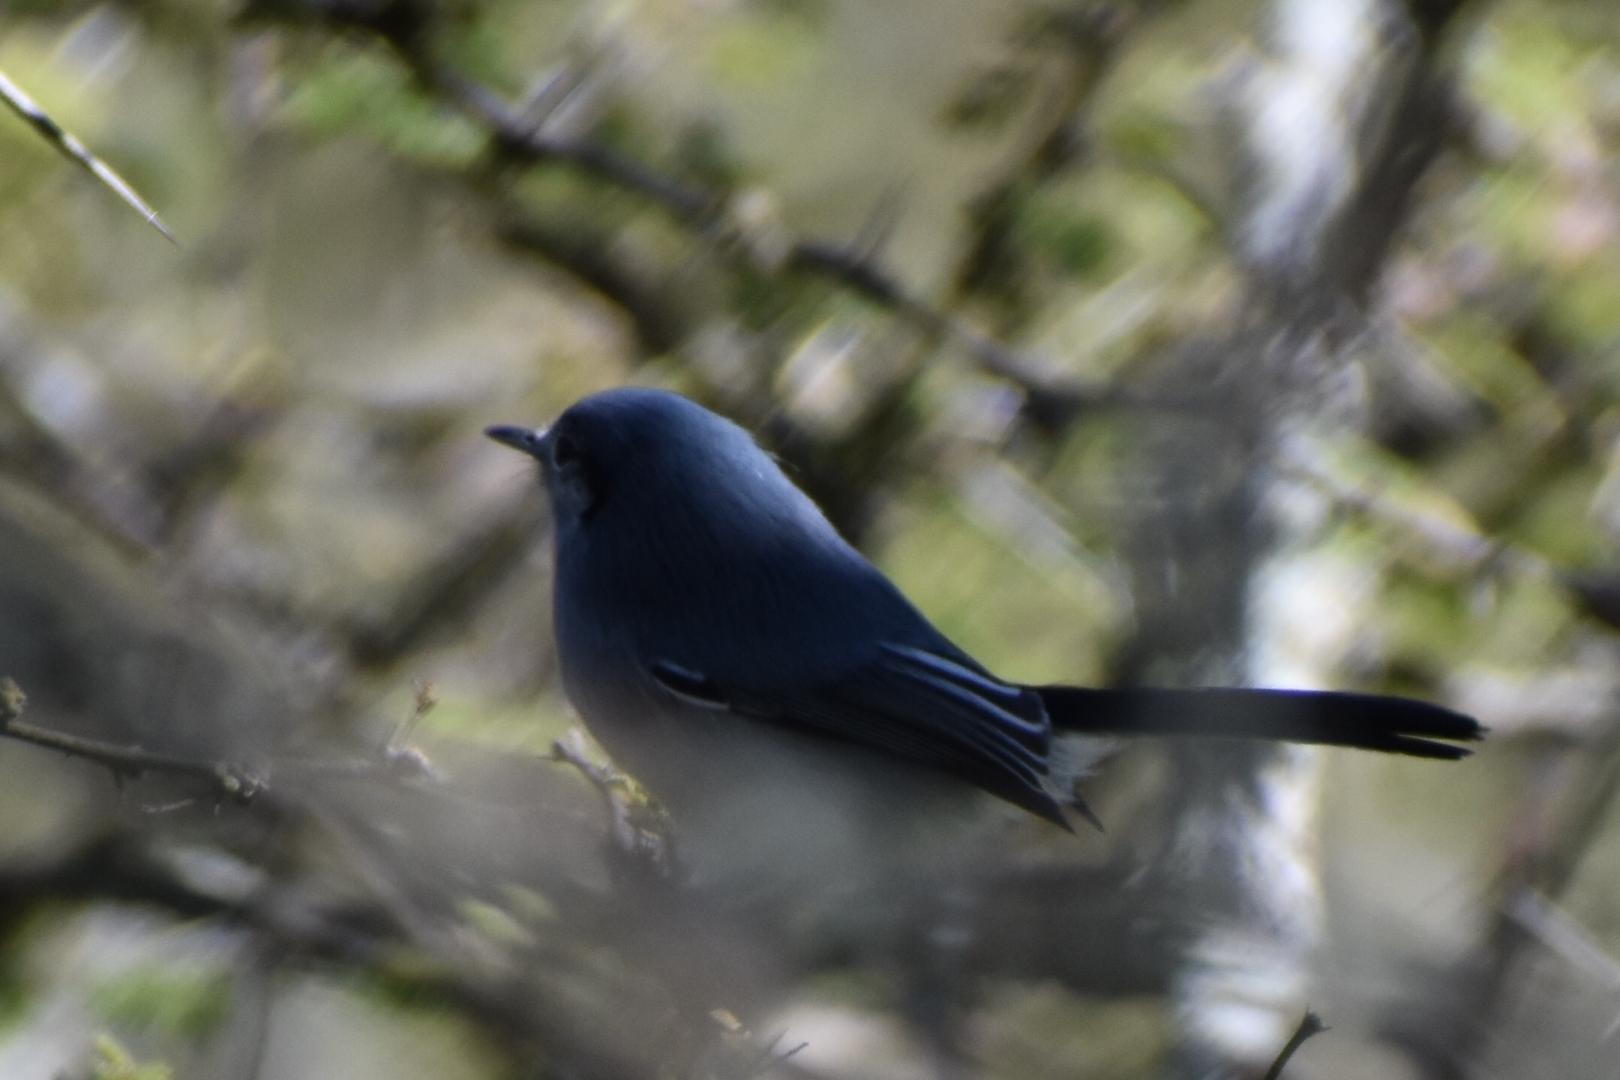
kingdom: Animalia
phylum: Chordata
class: Aves
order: Passeriformes
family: Polioptilidae
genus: Polioptila
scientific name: Polioptila dumicola
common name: Masked gnatcatcher
